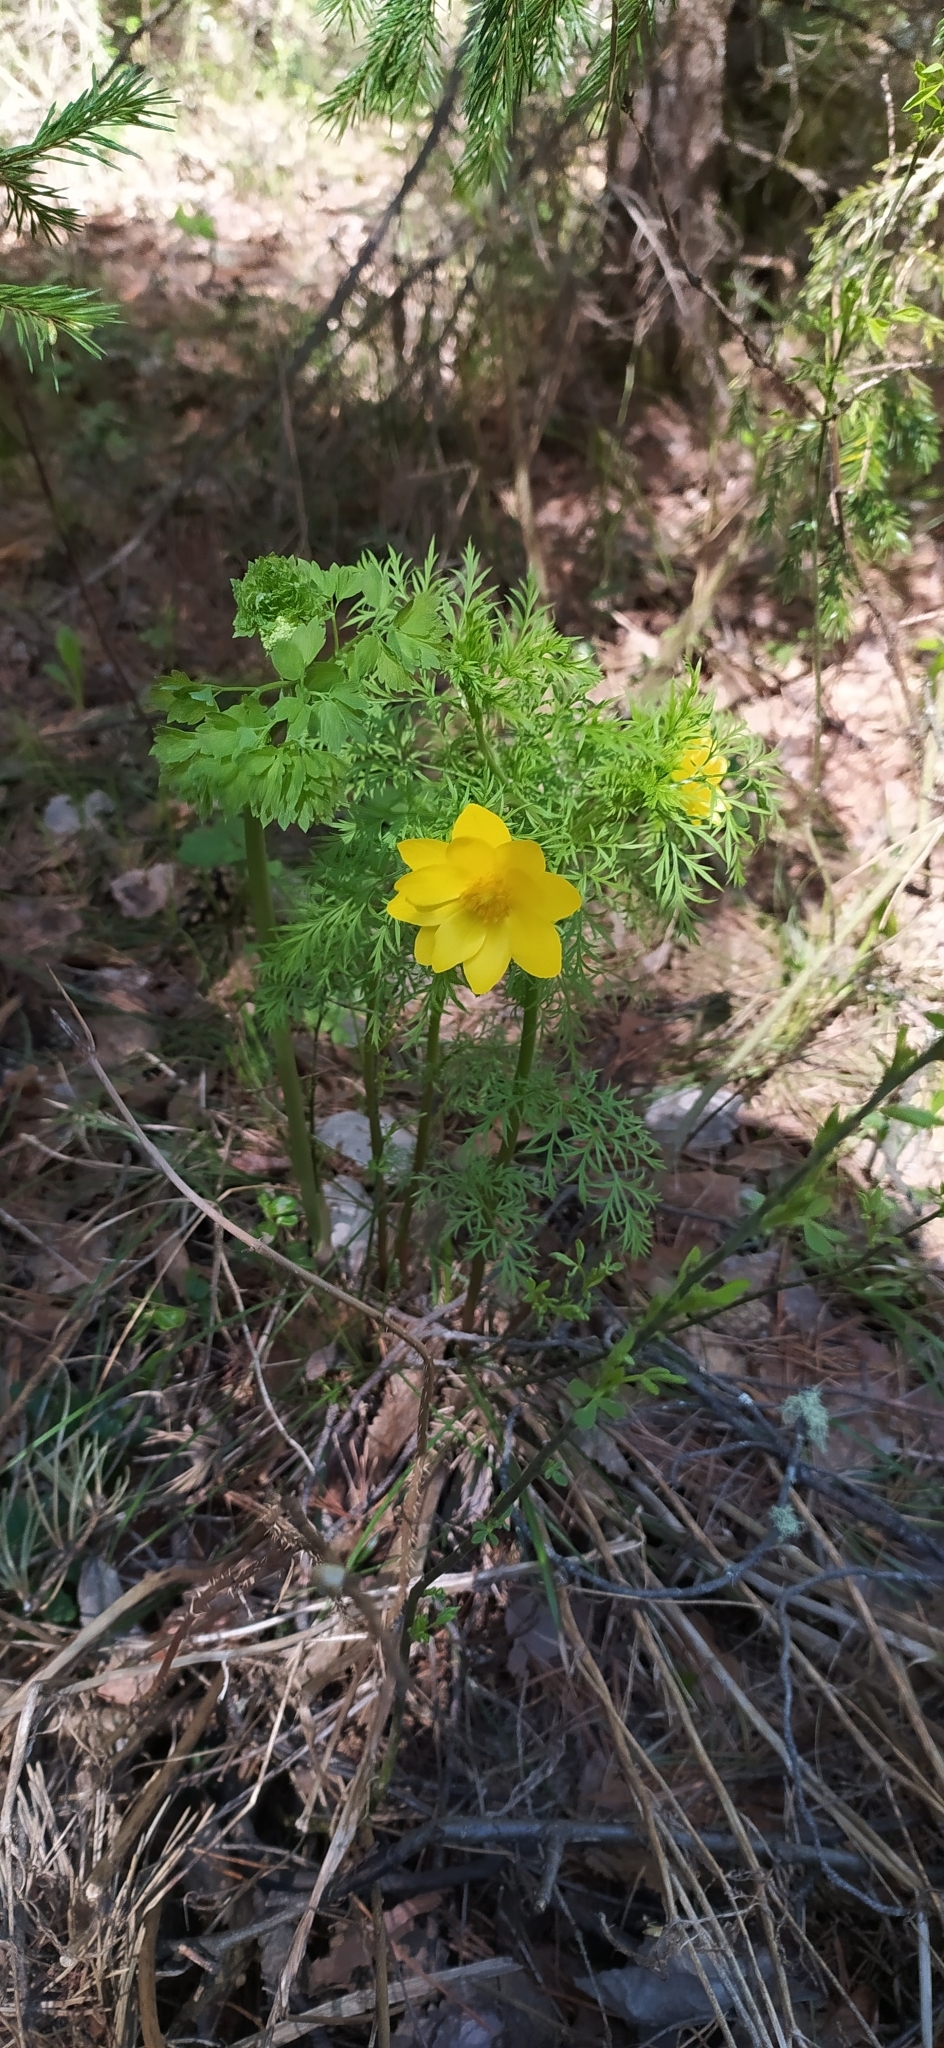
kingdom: Plantae
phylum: Tracheophyta
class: Magnoliopsida
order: Ranunculales
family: Ranunculaceae
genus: Adonis
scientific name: Adonis
